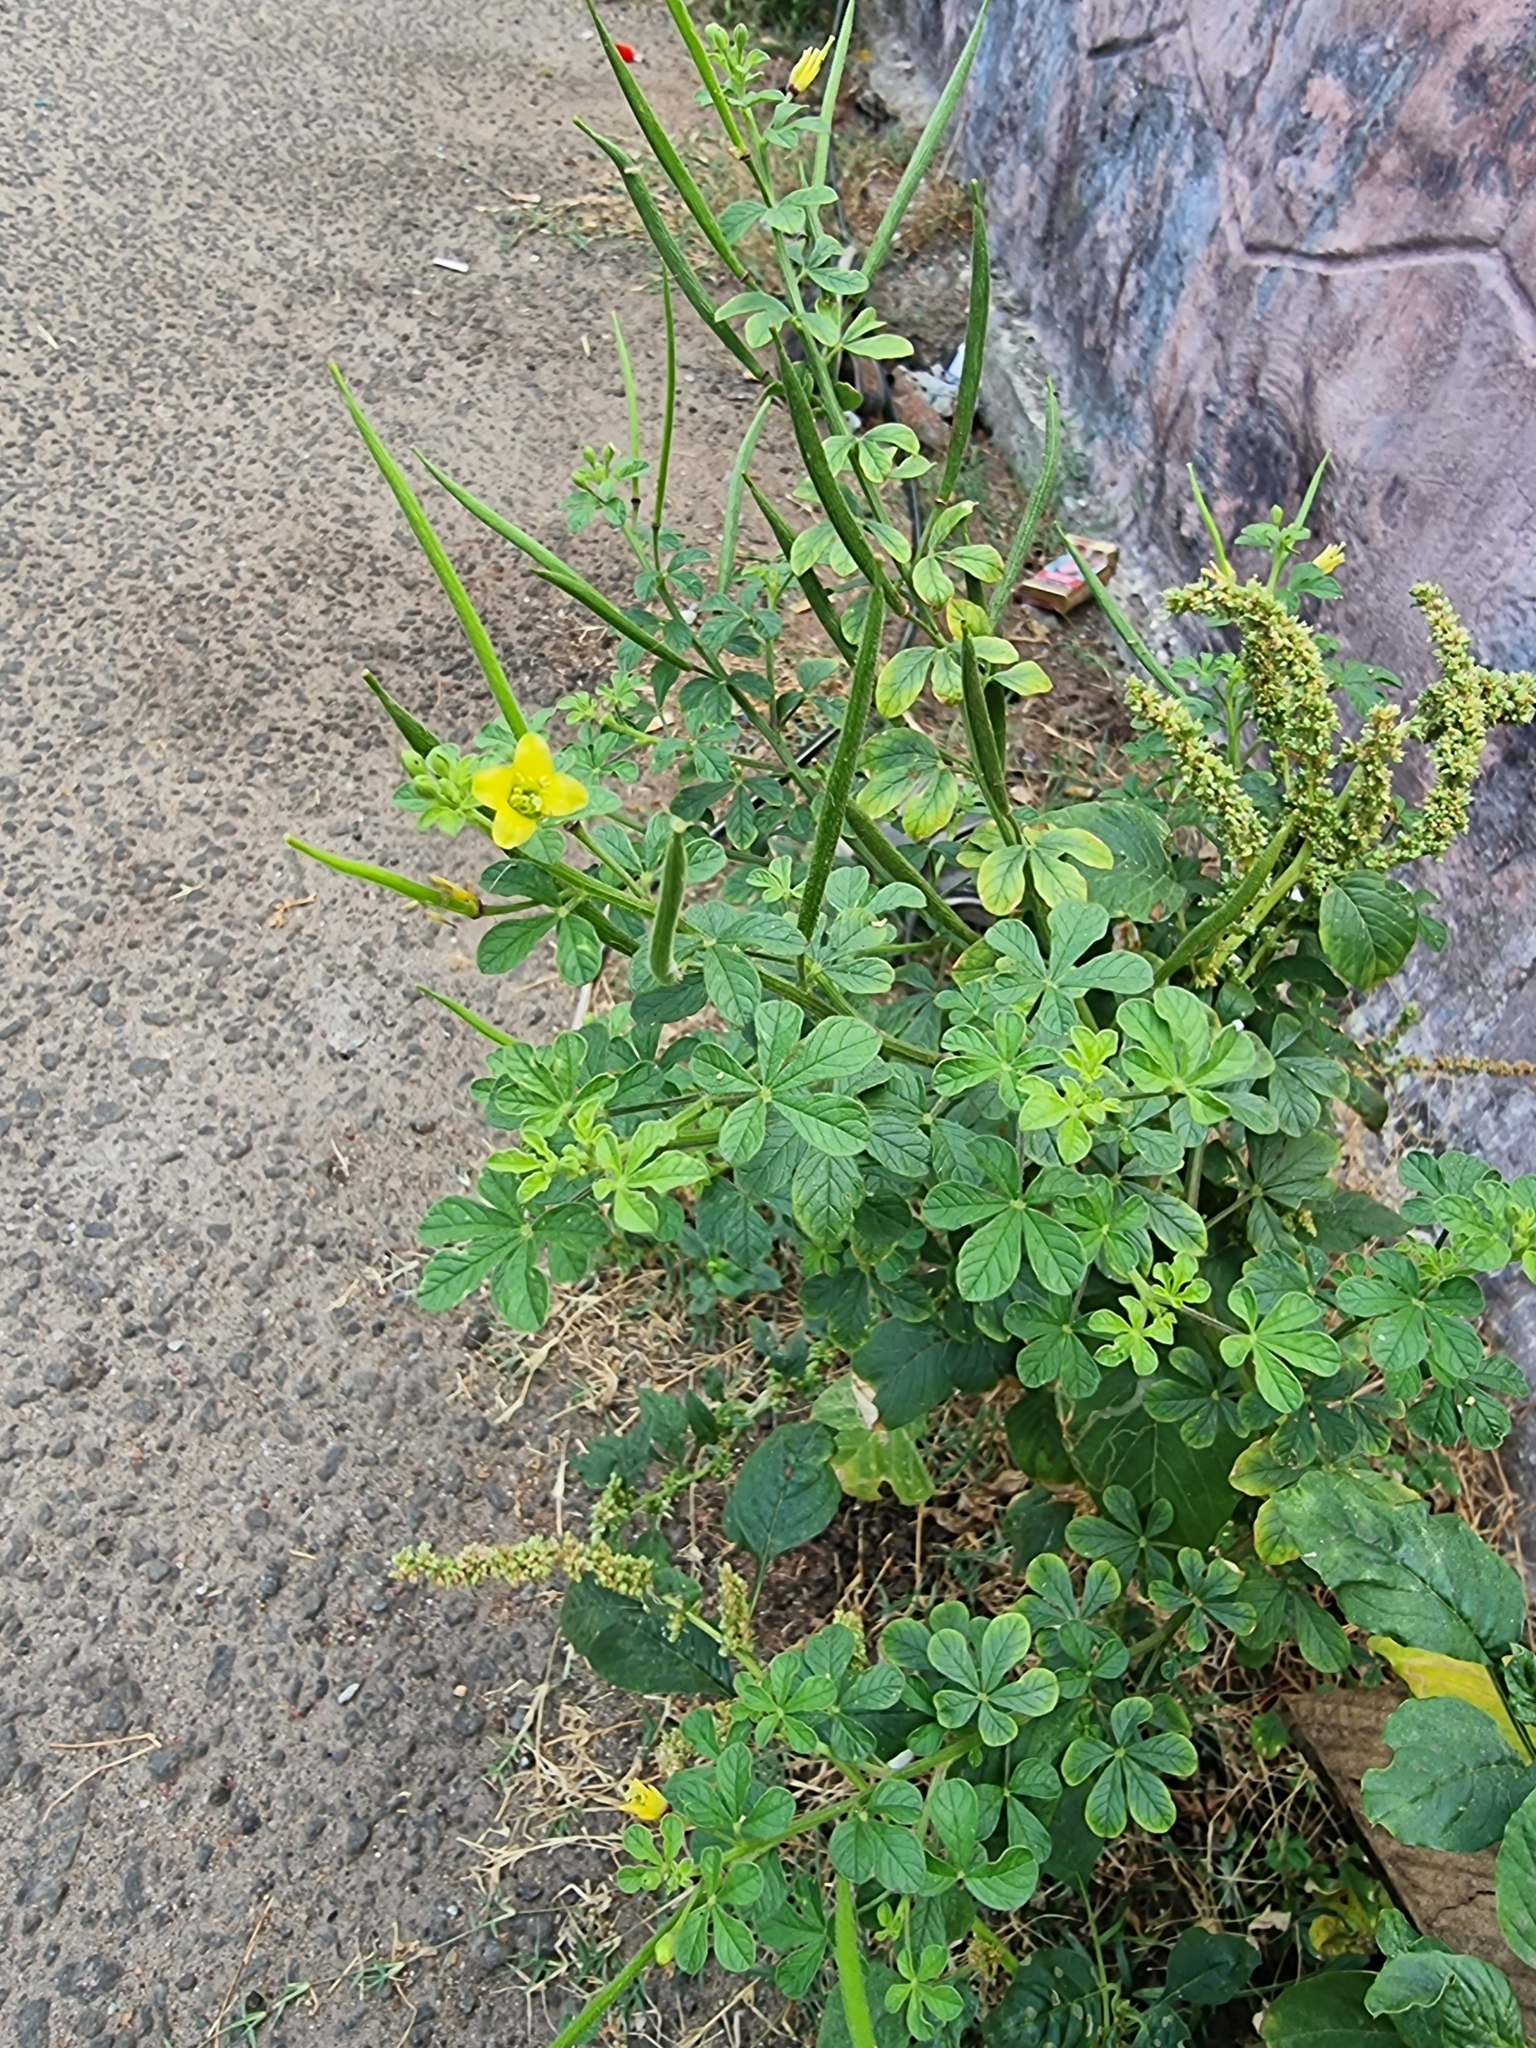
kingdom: Plantae
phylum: Tracheophyta
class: Magnoliopsida
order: Brassicales
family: Cleomaceae
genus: Arivela
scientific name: Arivela viscosa
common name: Asian spiderflower
